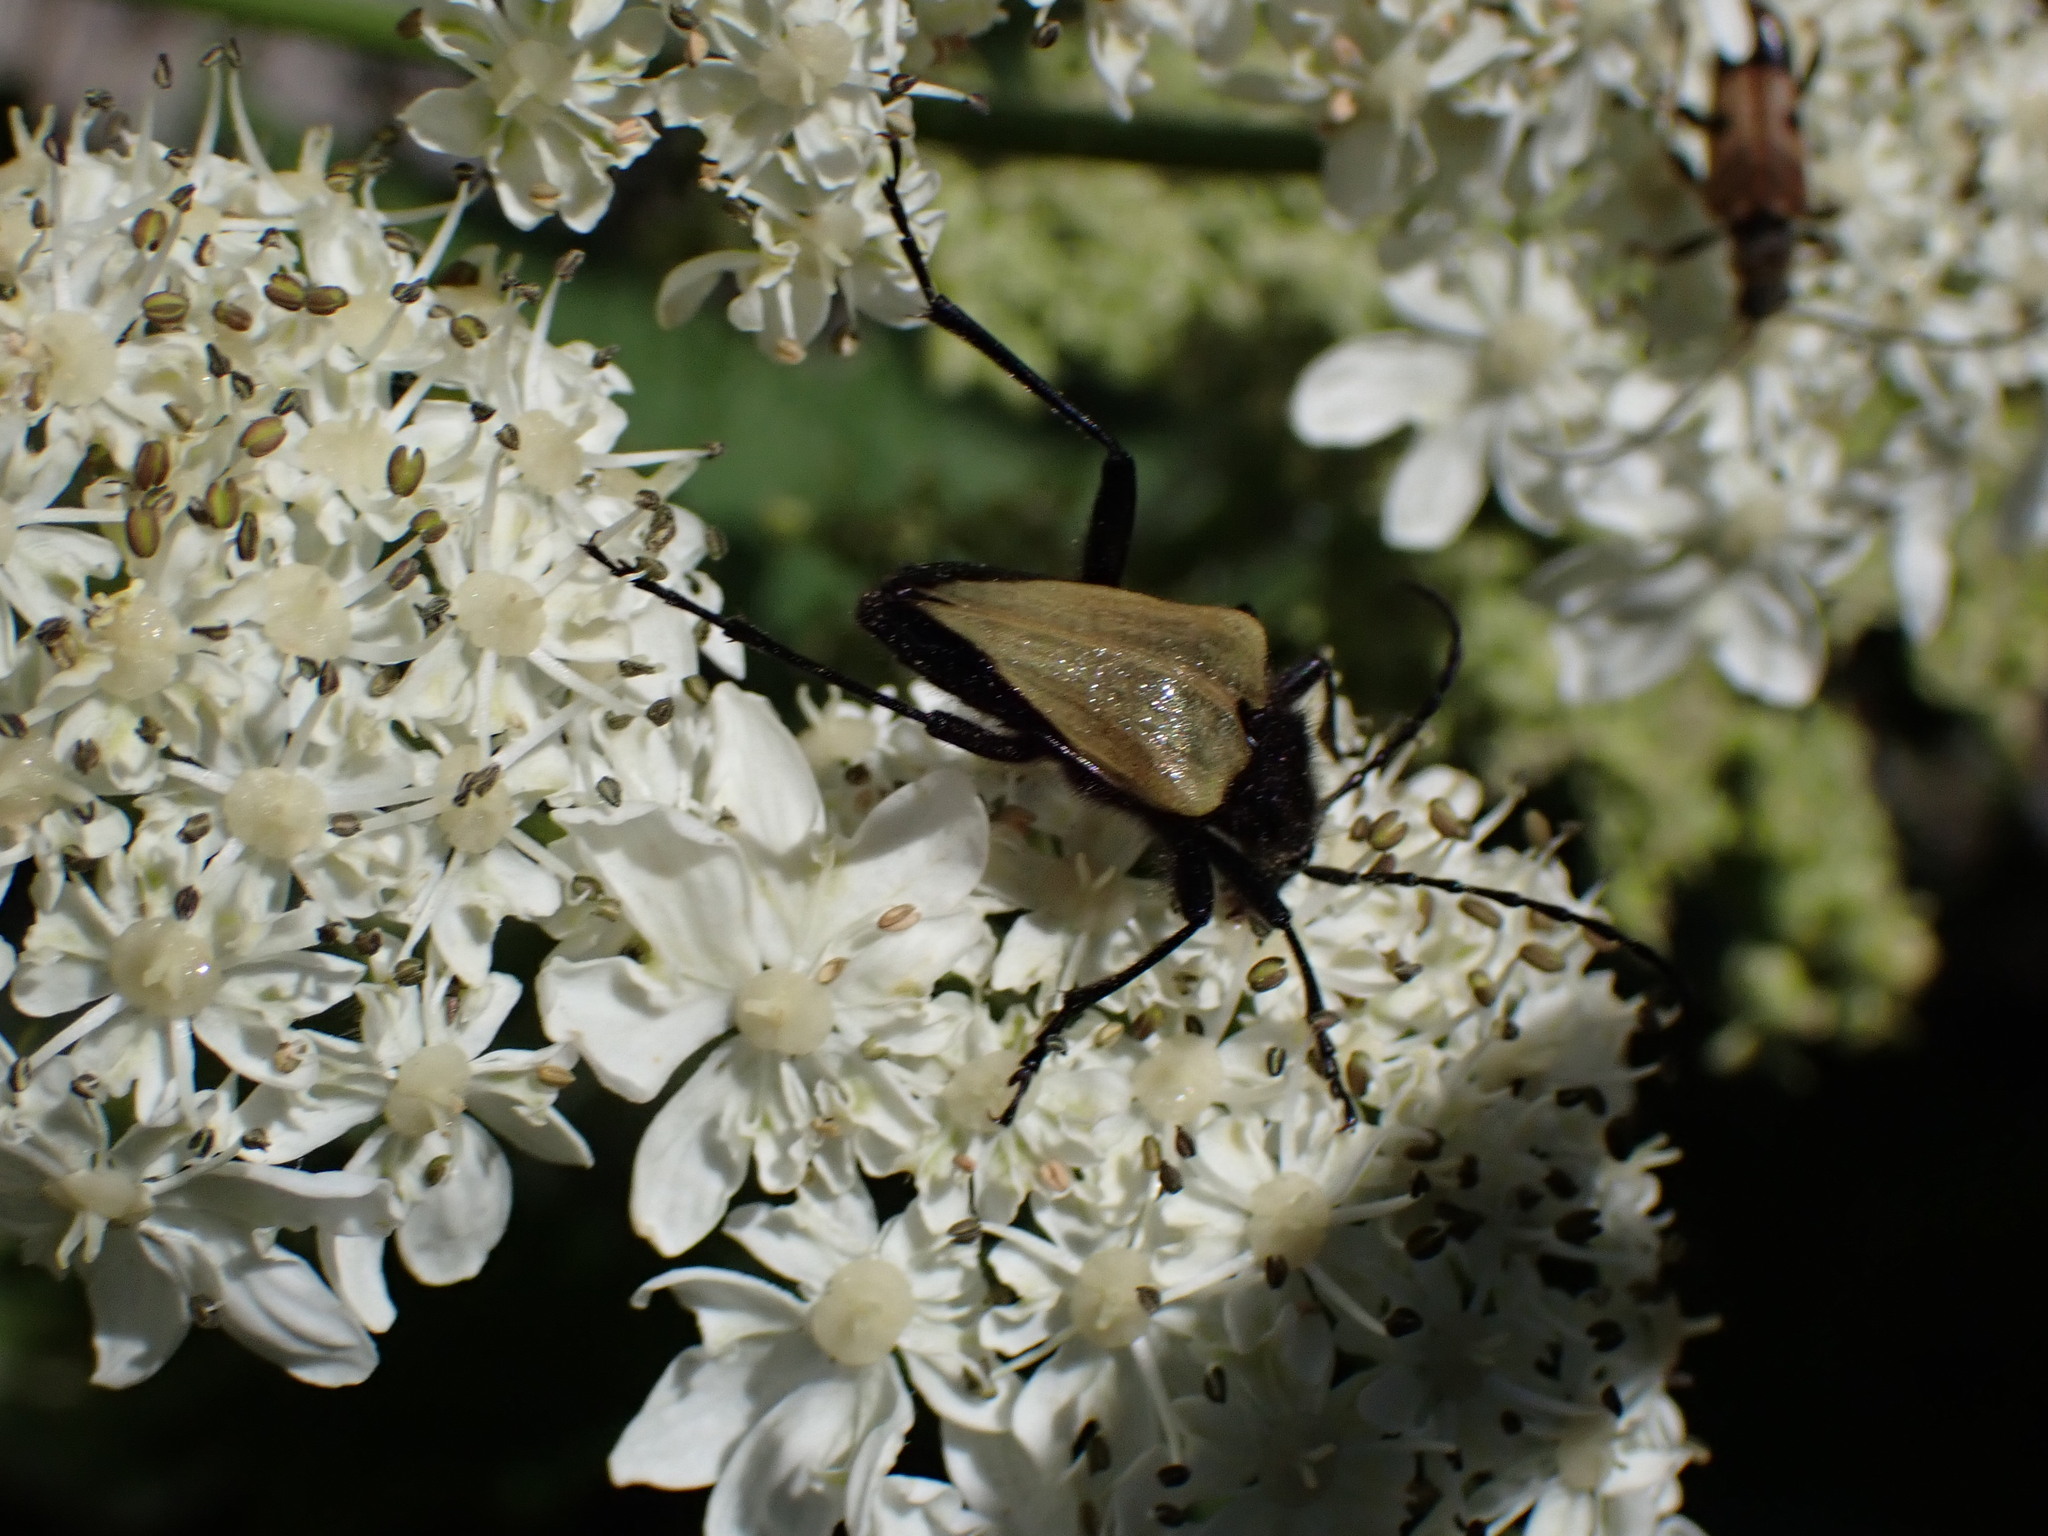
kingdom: Animalia
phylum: Arthropoda
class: Insecta
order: Coleoptera
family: Cerambycidae
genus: Pachyta
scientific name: Pachyta armata
